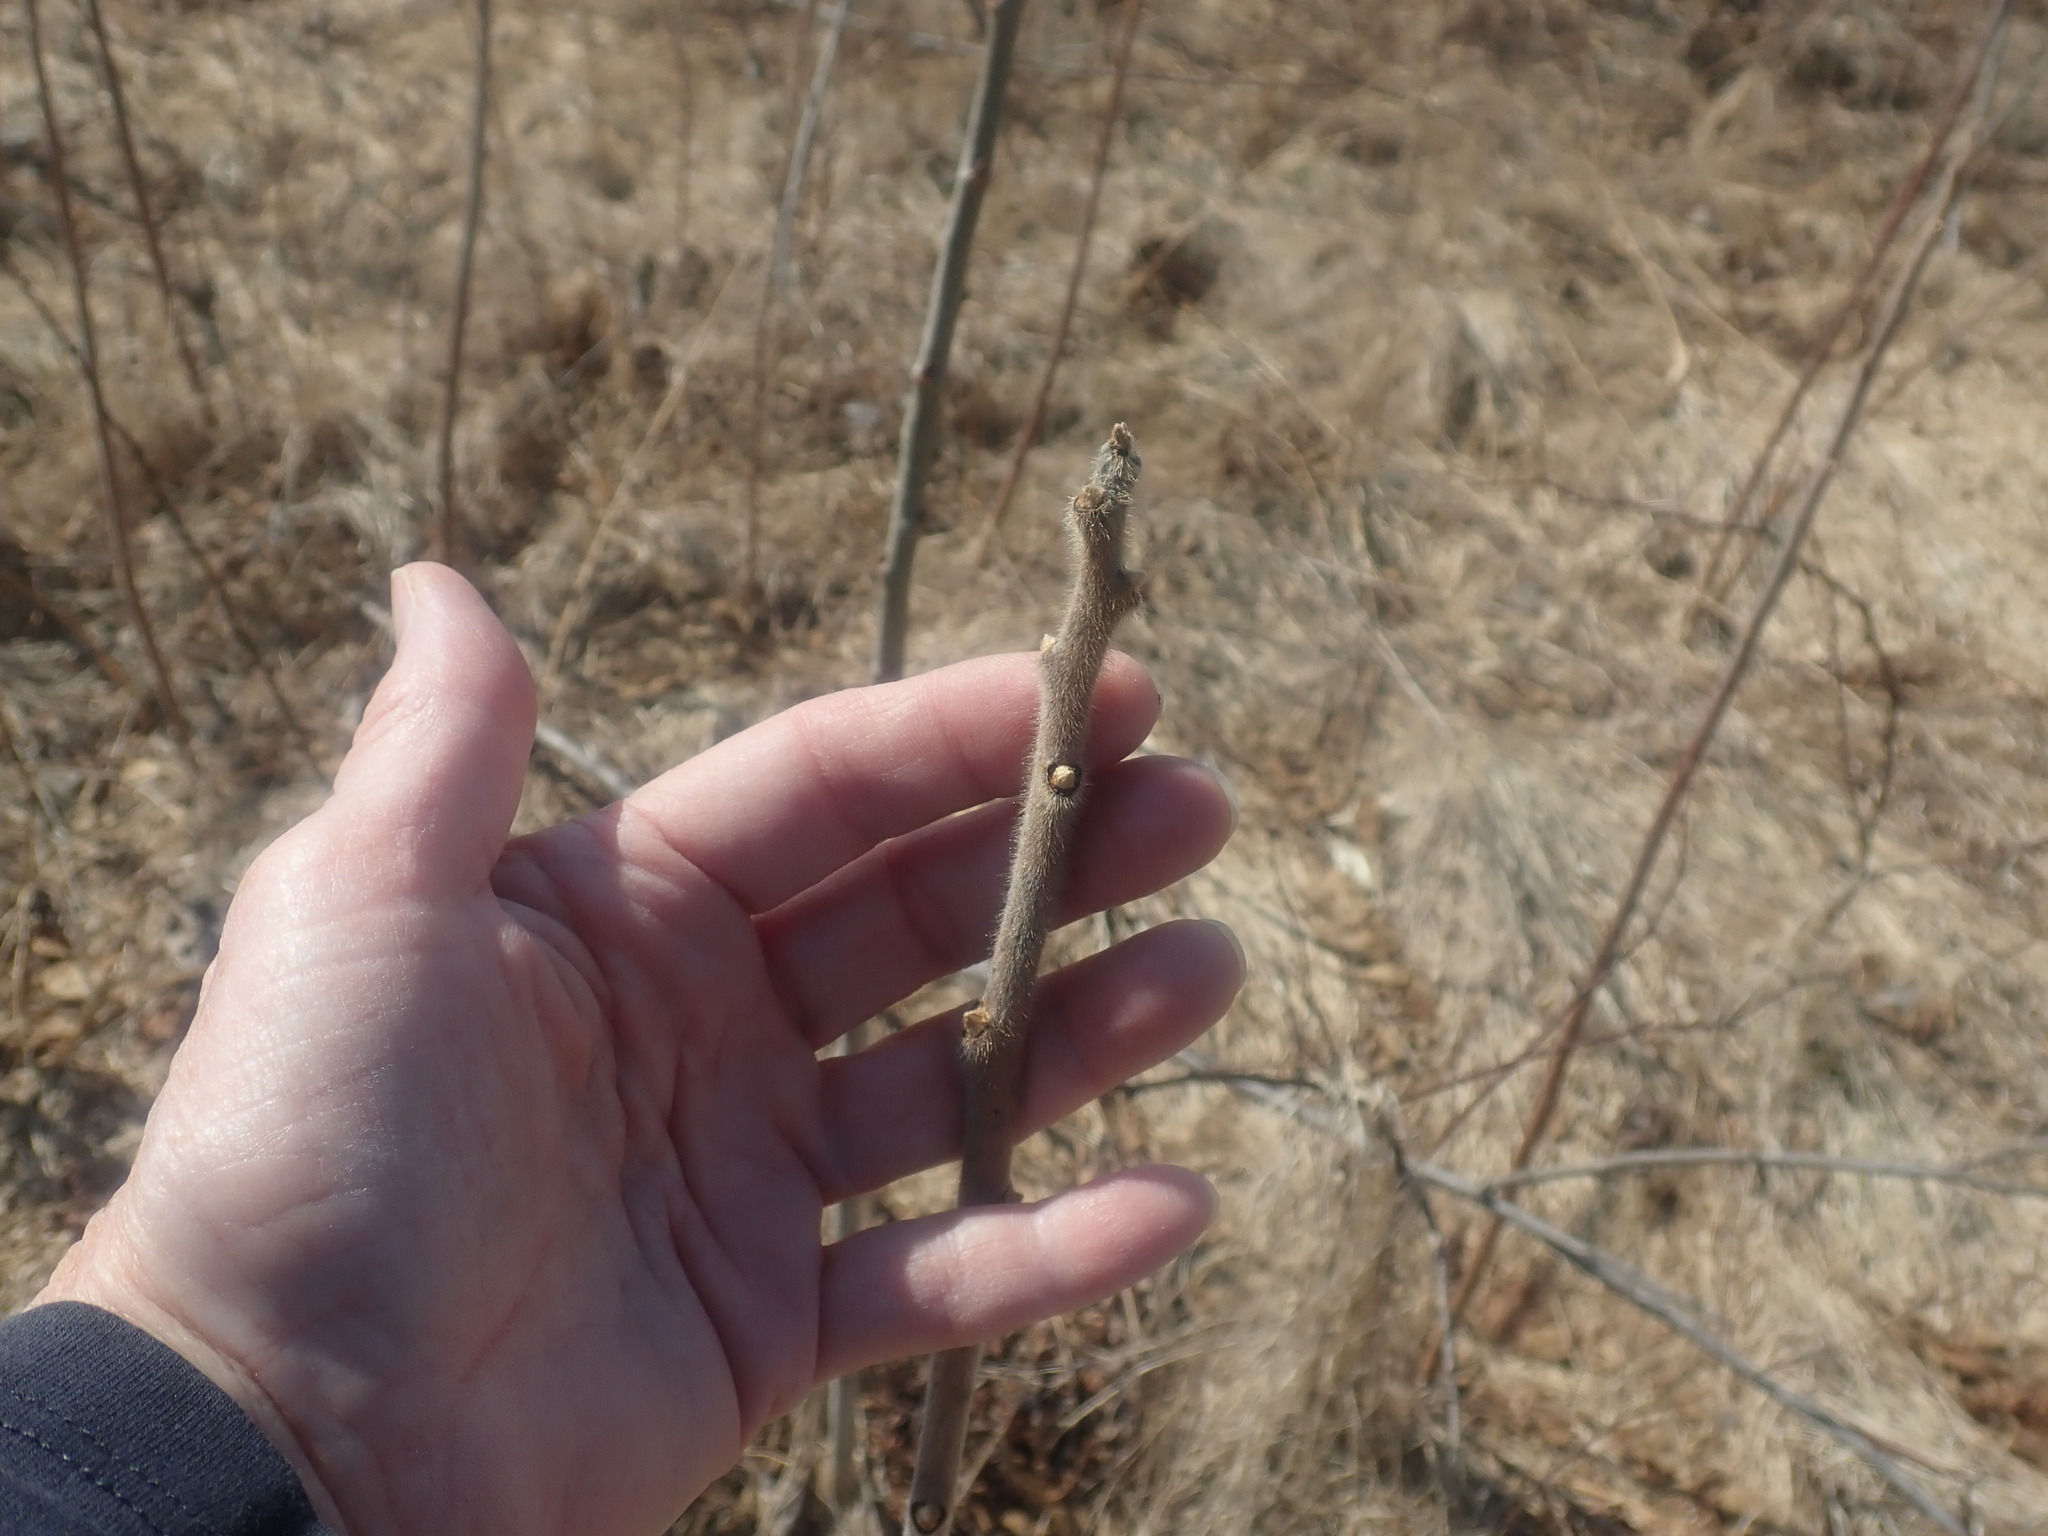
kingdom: Plantae
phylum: Tracheophyta
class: Magnoliopsida
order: Sapindales
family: Anacardiaceae
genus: Rhus
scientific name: Rhus typhina
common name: Staghorn sumac
